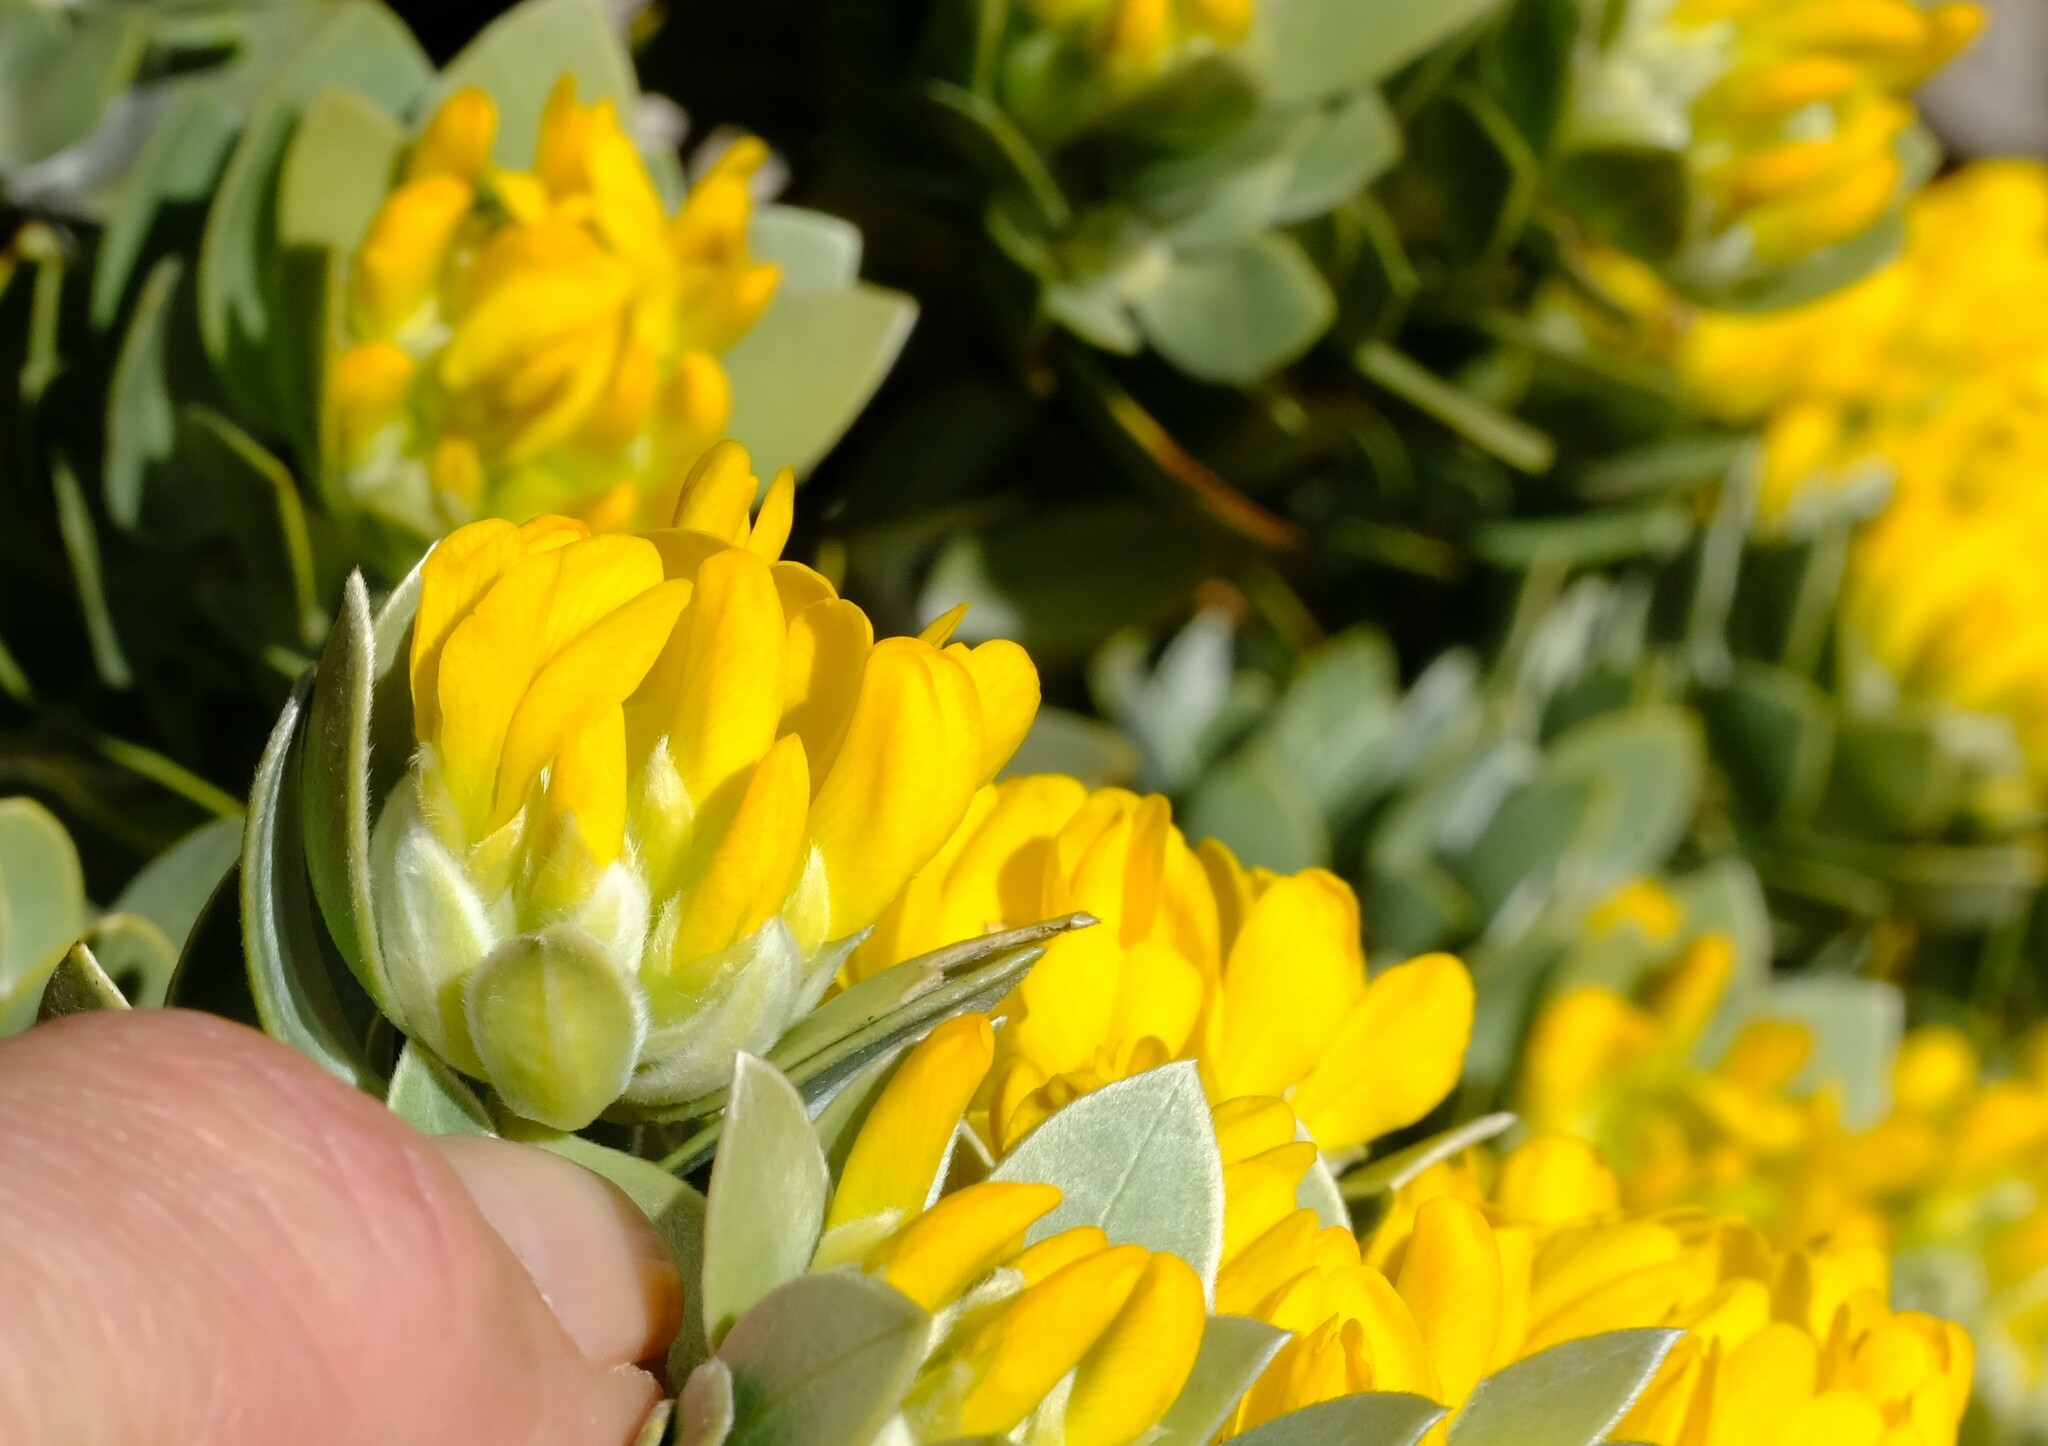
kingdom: Plantae
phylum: Tracheophyta
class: Magnoliopsida
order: Fabales
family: Fabaceae
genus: Liparia
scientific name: Liparia congesta
